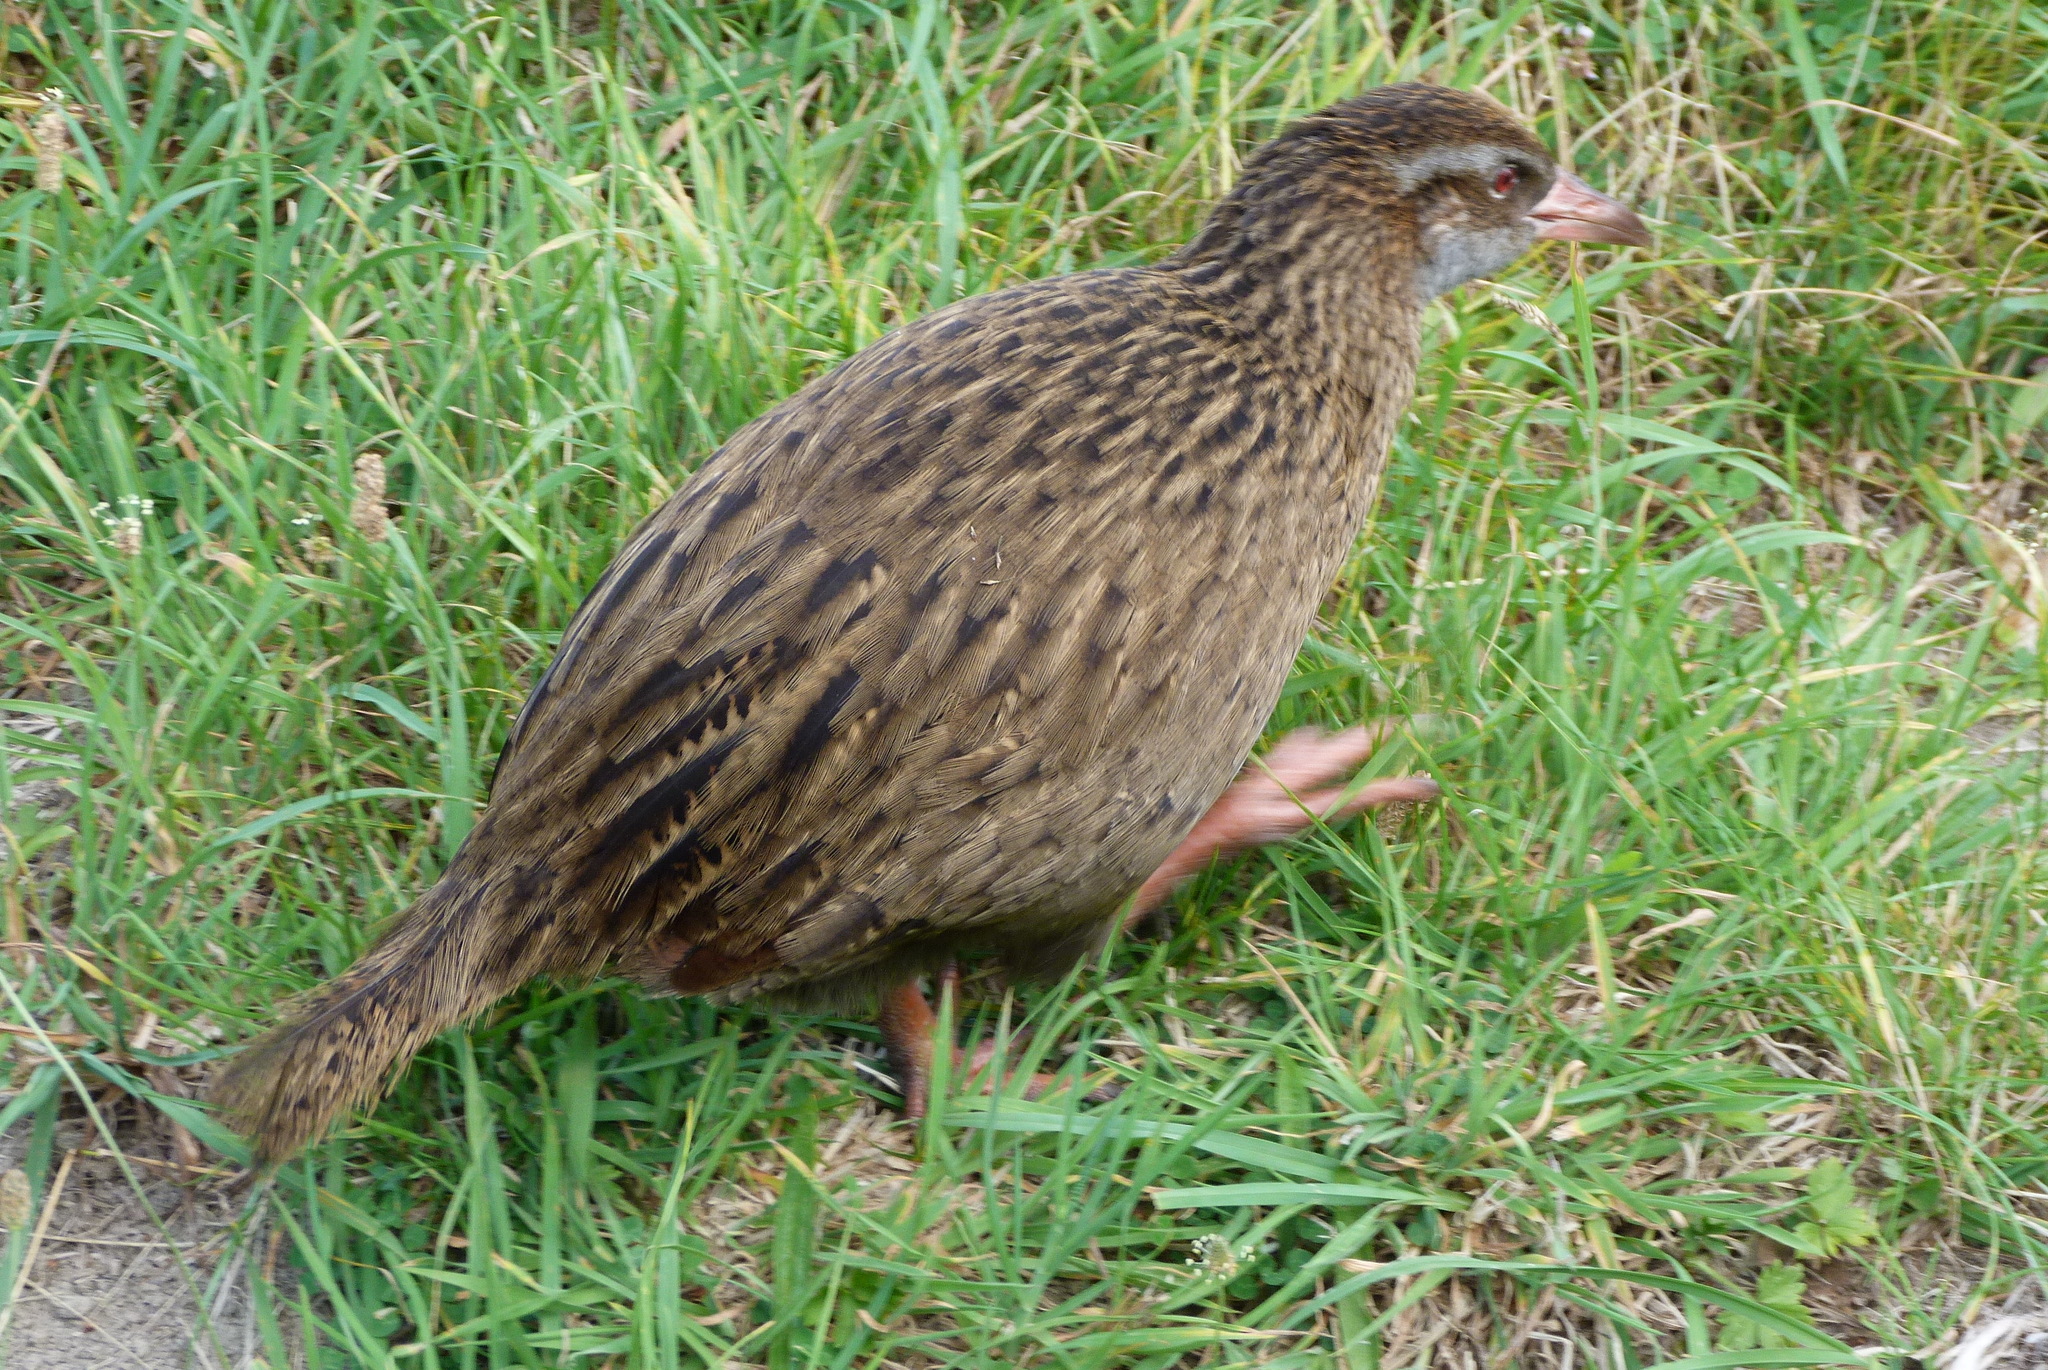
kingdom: Animalia
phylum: Chordata
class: Aves
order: Gruiformes
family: Rallidae
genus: Gallirallus
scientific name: Gallirallus australis
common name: Weka
